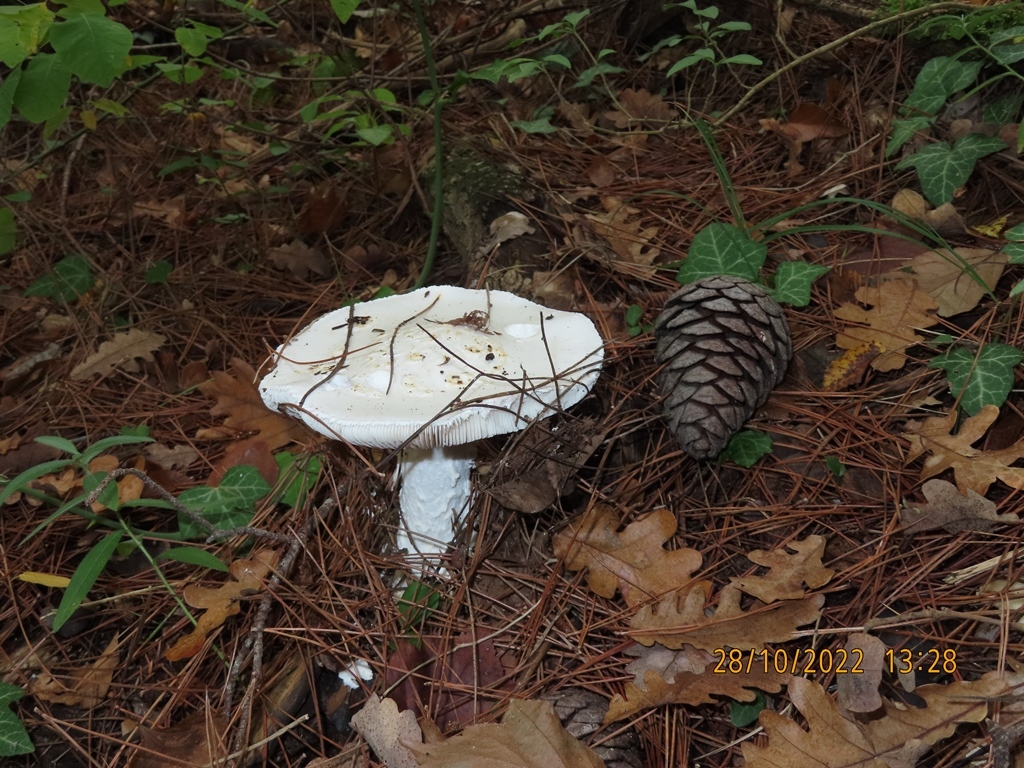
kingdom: Fungi
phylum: Basidiomycota
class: Agaricomycetes
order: Agaricales
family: Amanitaceae
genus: Amanita
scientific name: Amanita ovoidea
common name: Bearded amanita
